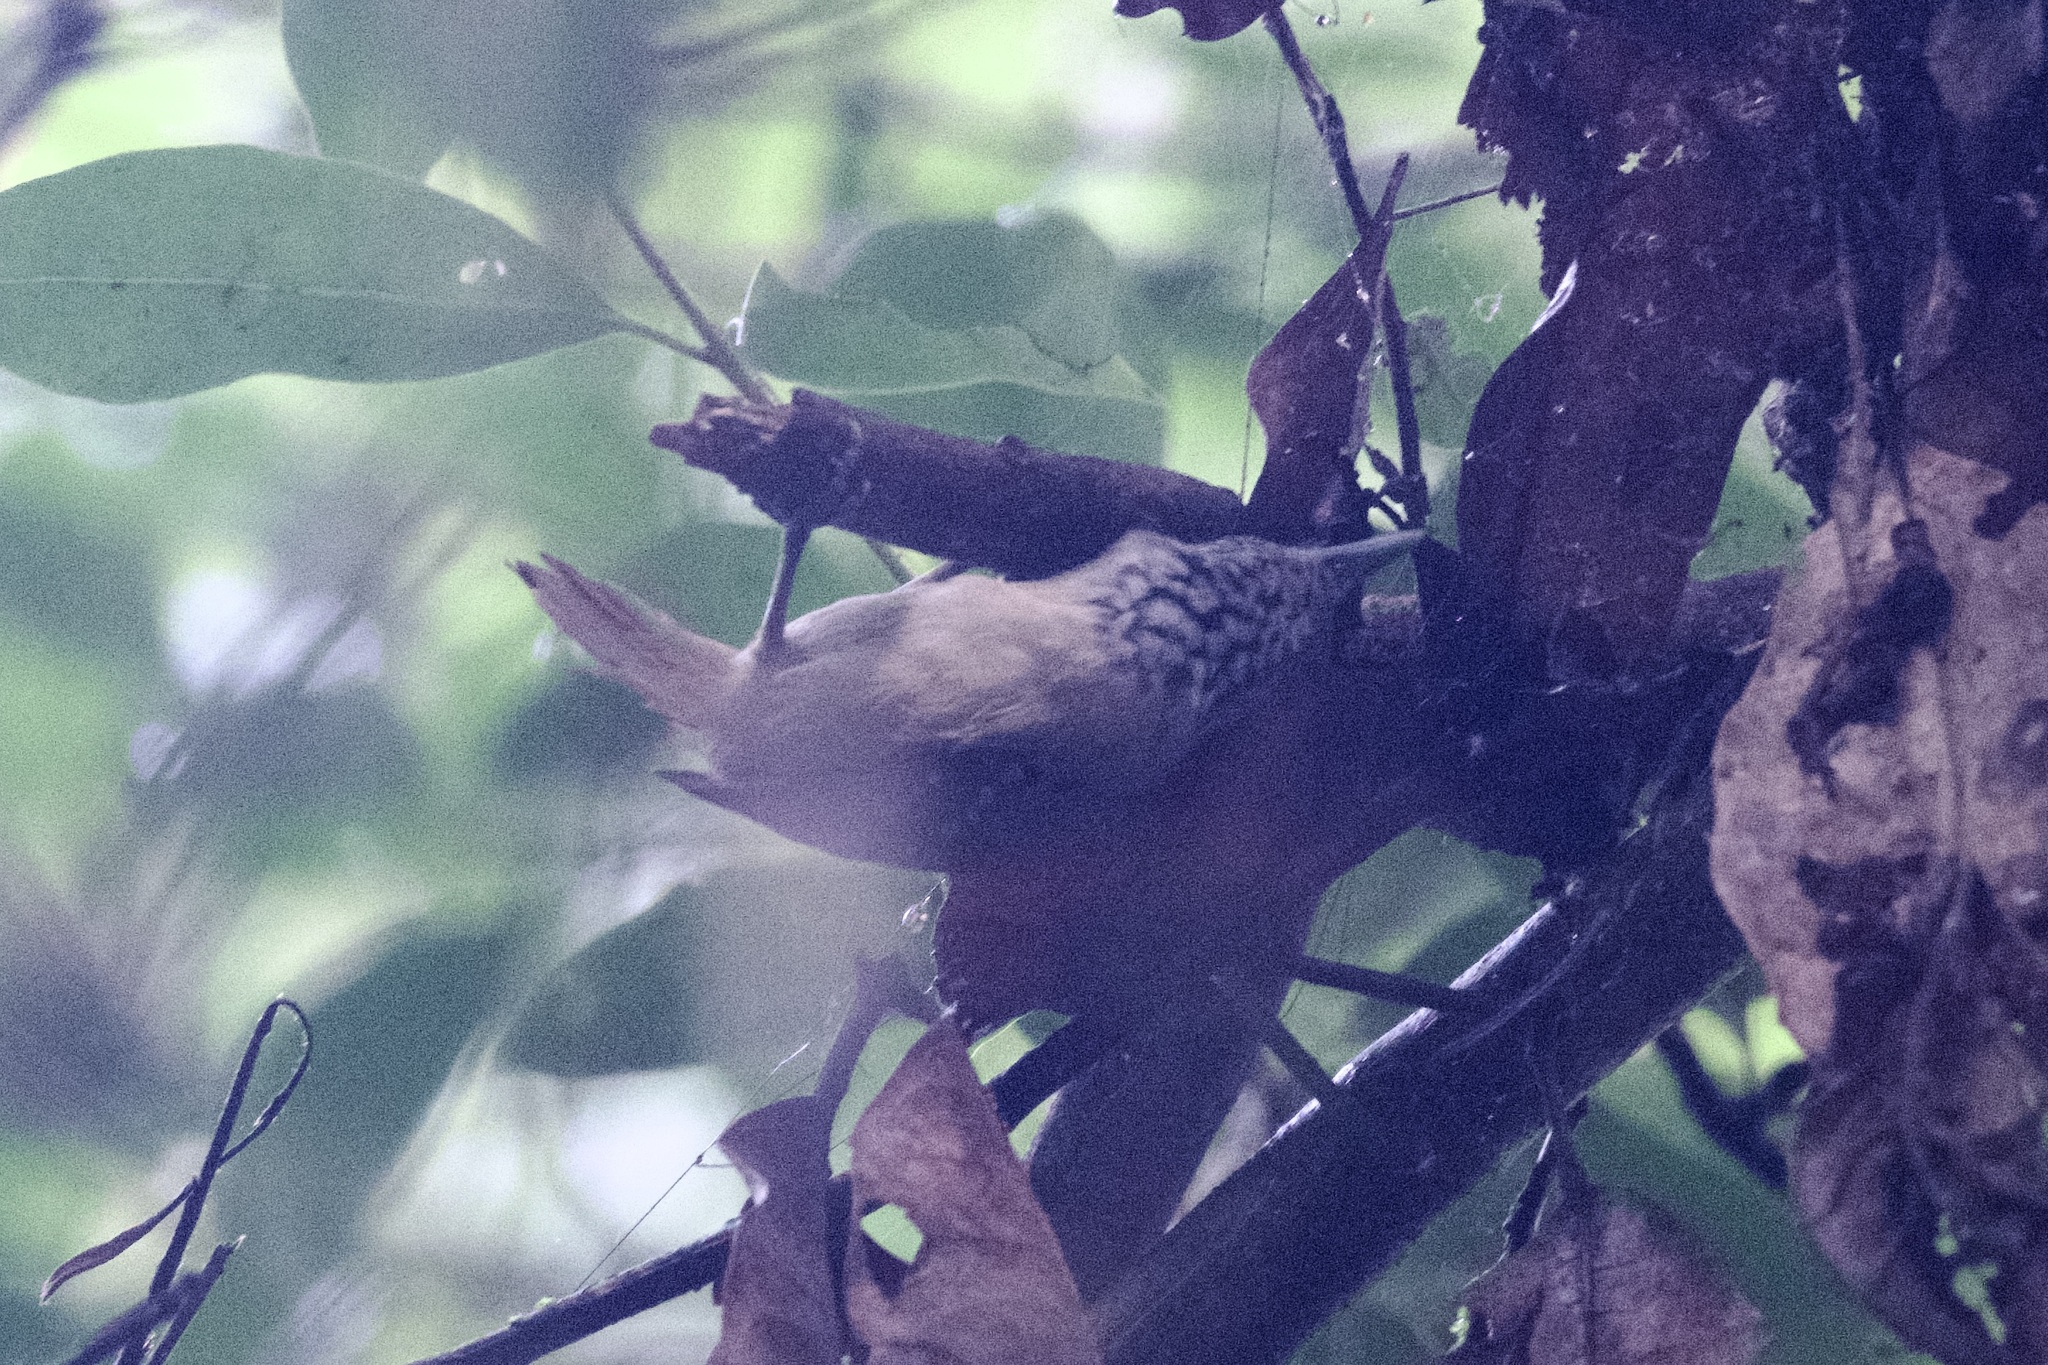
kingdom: Animalia
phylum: Chordata
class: Aves
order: Passeriformes
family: Thamnophilidae
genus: Epinecrophylla
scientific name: Epinecrophylla fulviventris
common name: Checker-throated antwren
